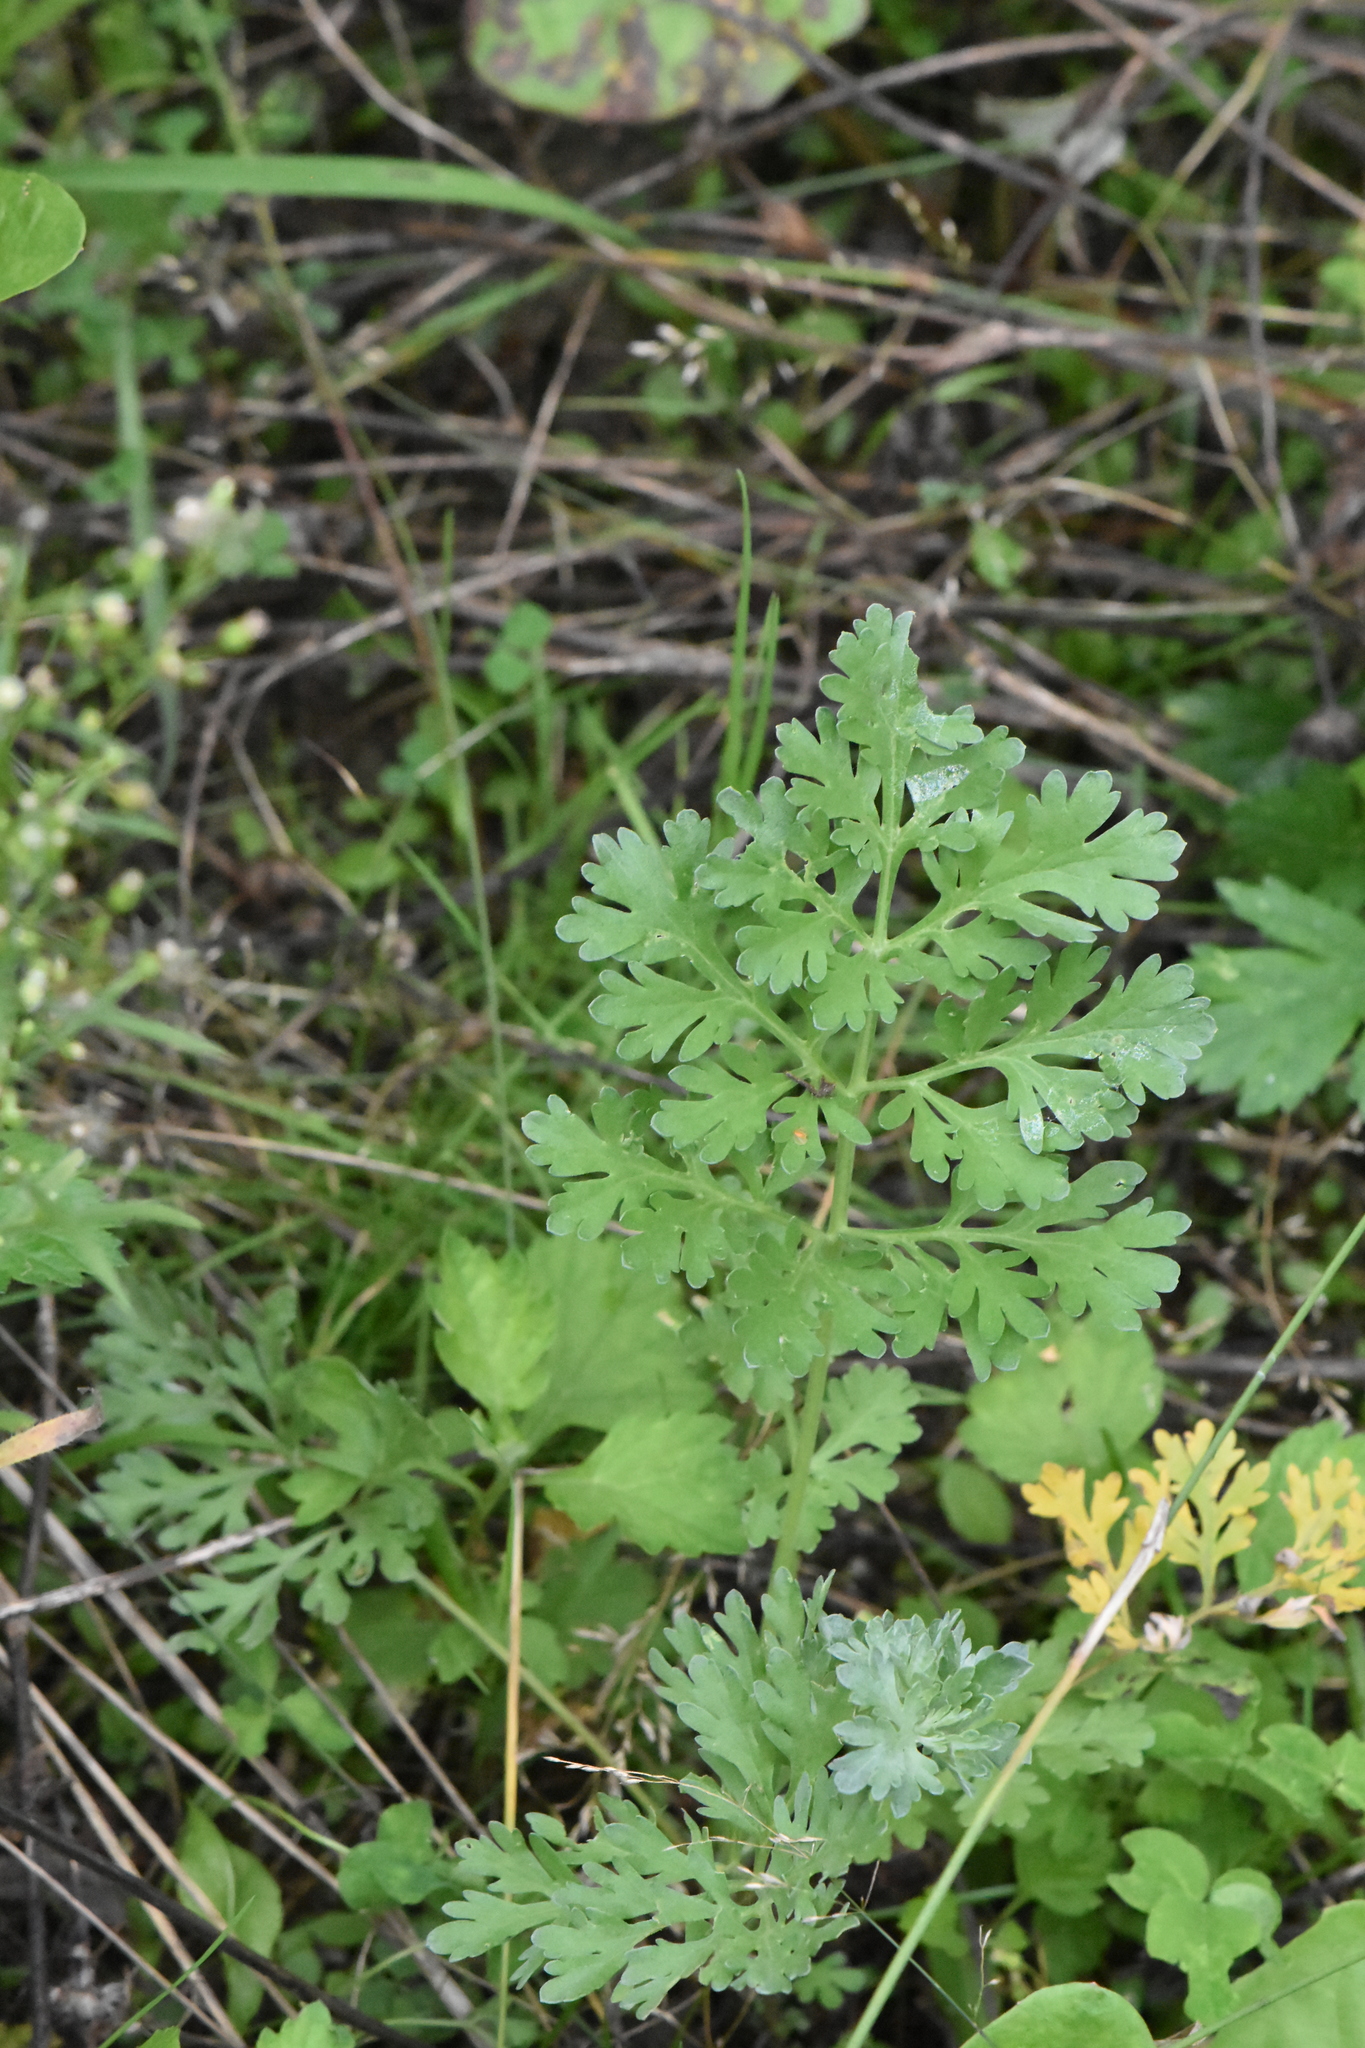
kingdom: Plantae
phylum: Tracheophyta
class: Magnoliopsida
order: Asterales
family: Asteraceae
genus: Artemisia
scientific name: Artemisia absinthium
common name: Wormwood
